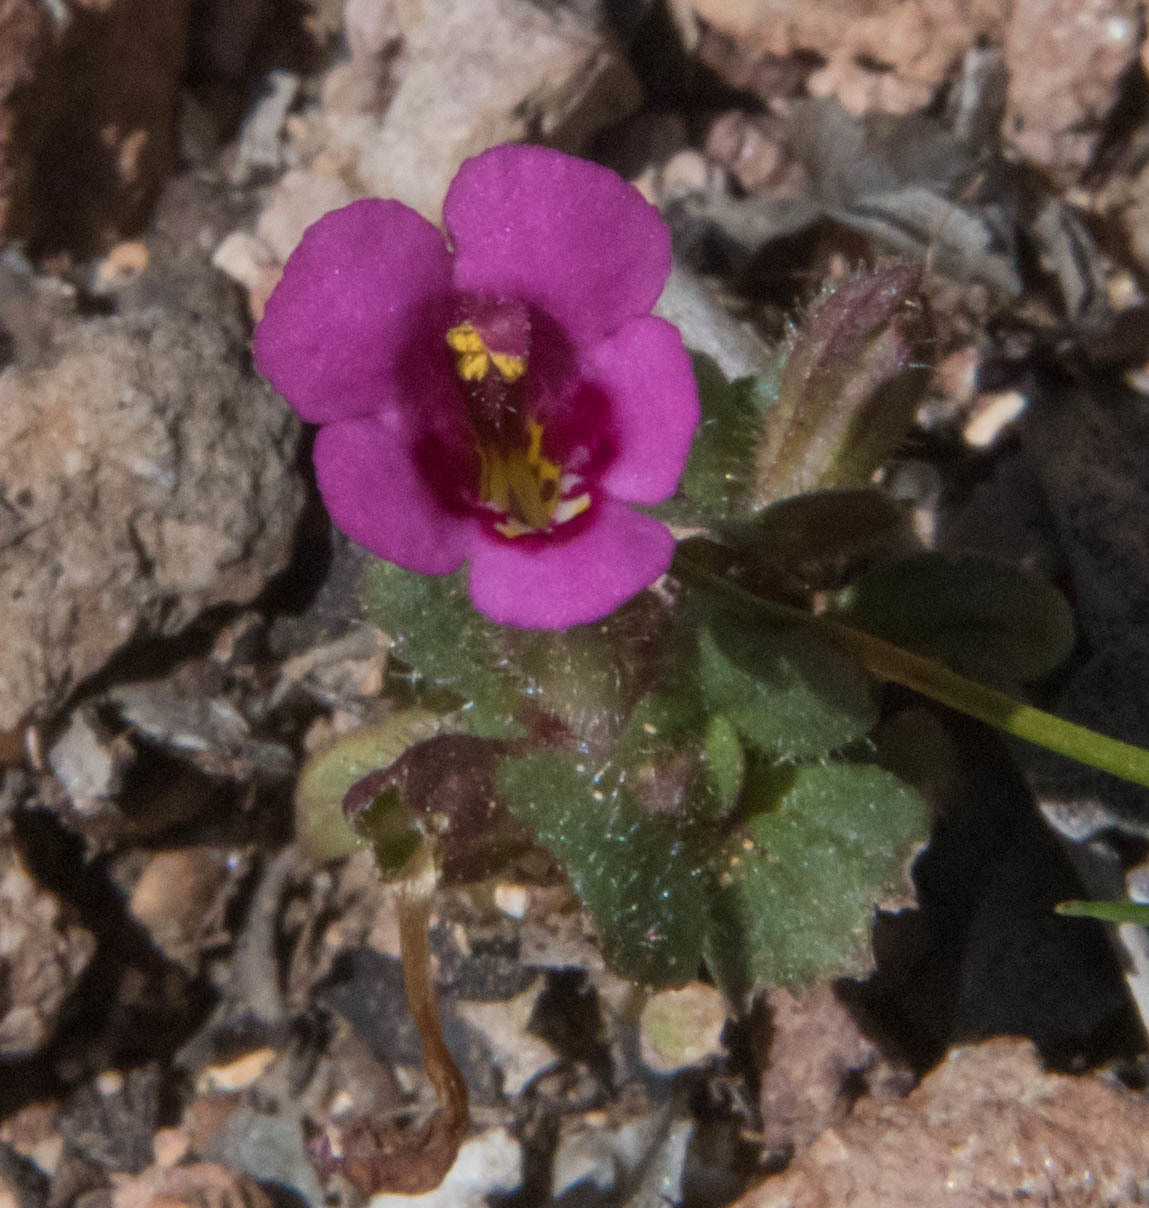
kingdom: Plantae
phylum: Tracheophyta
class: Magnoliopsida
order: Lamiales
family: Phrymaceae
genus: Diplacus
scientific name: Diplacus kelloggii
